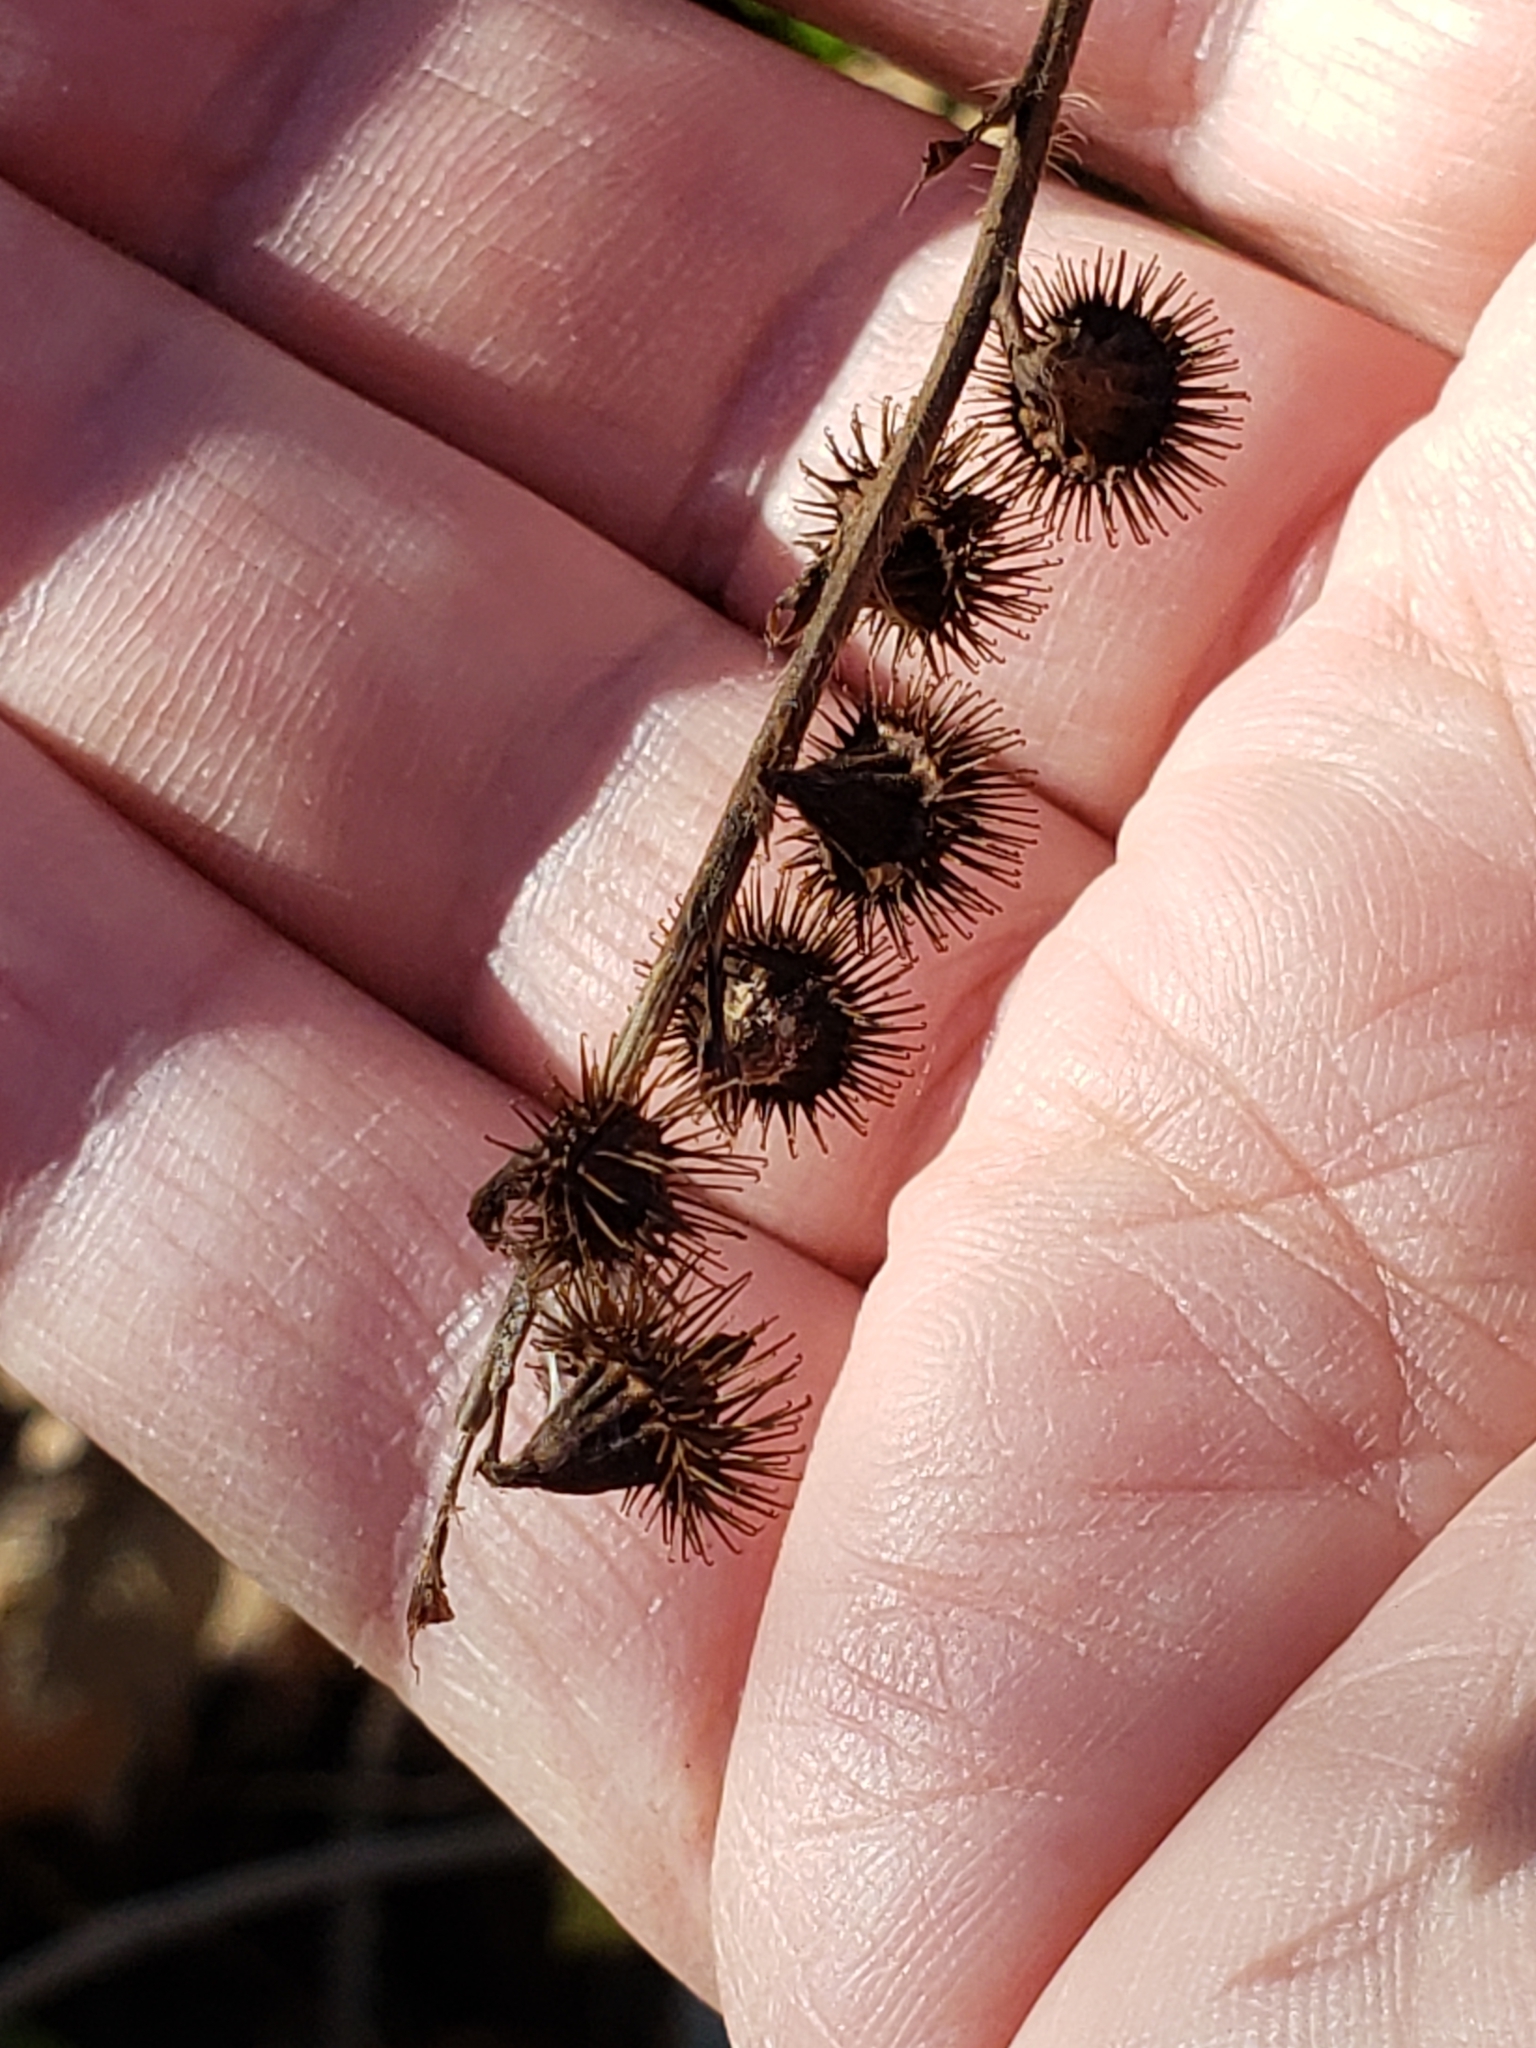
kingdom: Plantae
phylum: Tracheophyta
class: Magnoliopsida
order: Rosales
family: Rosaceae
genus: Agrimonia
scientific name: Agrimonia striata
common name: Britton's agrimony
